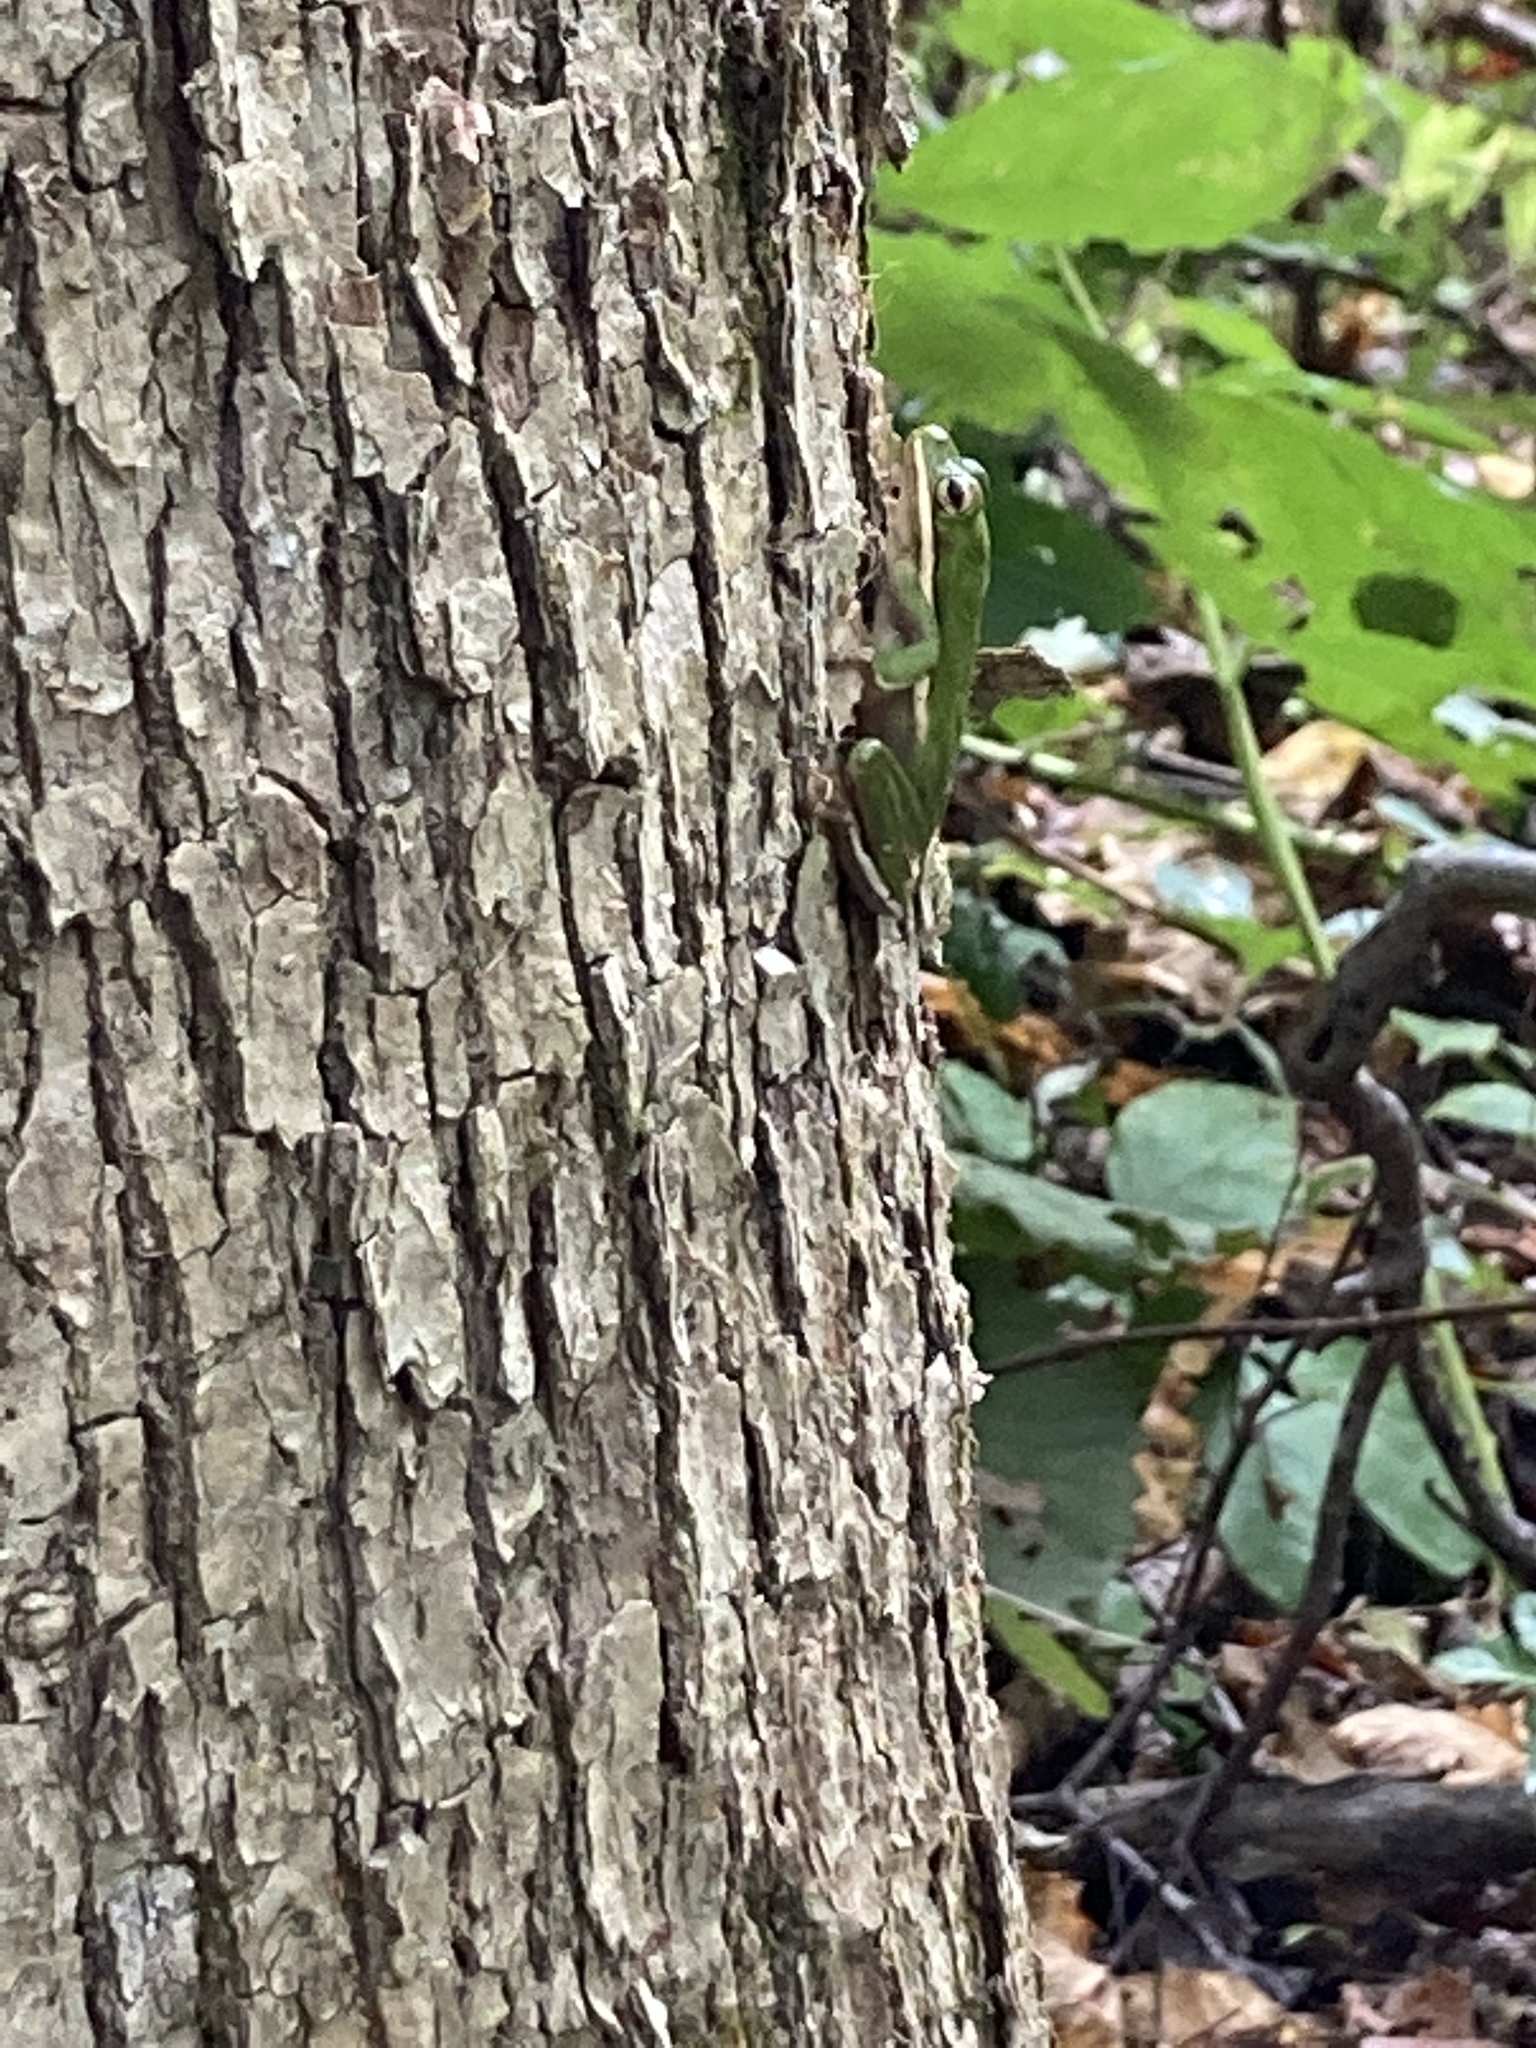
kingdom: Animalia
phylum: Chordata
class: Amphibia
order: Anura
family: Hylidae
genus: Dryophytes
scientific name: Dryophytes cinereus
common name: Green treefrog
